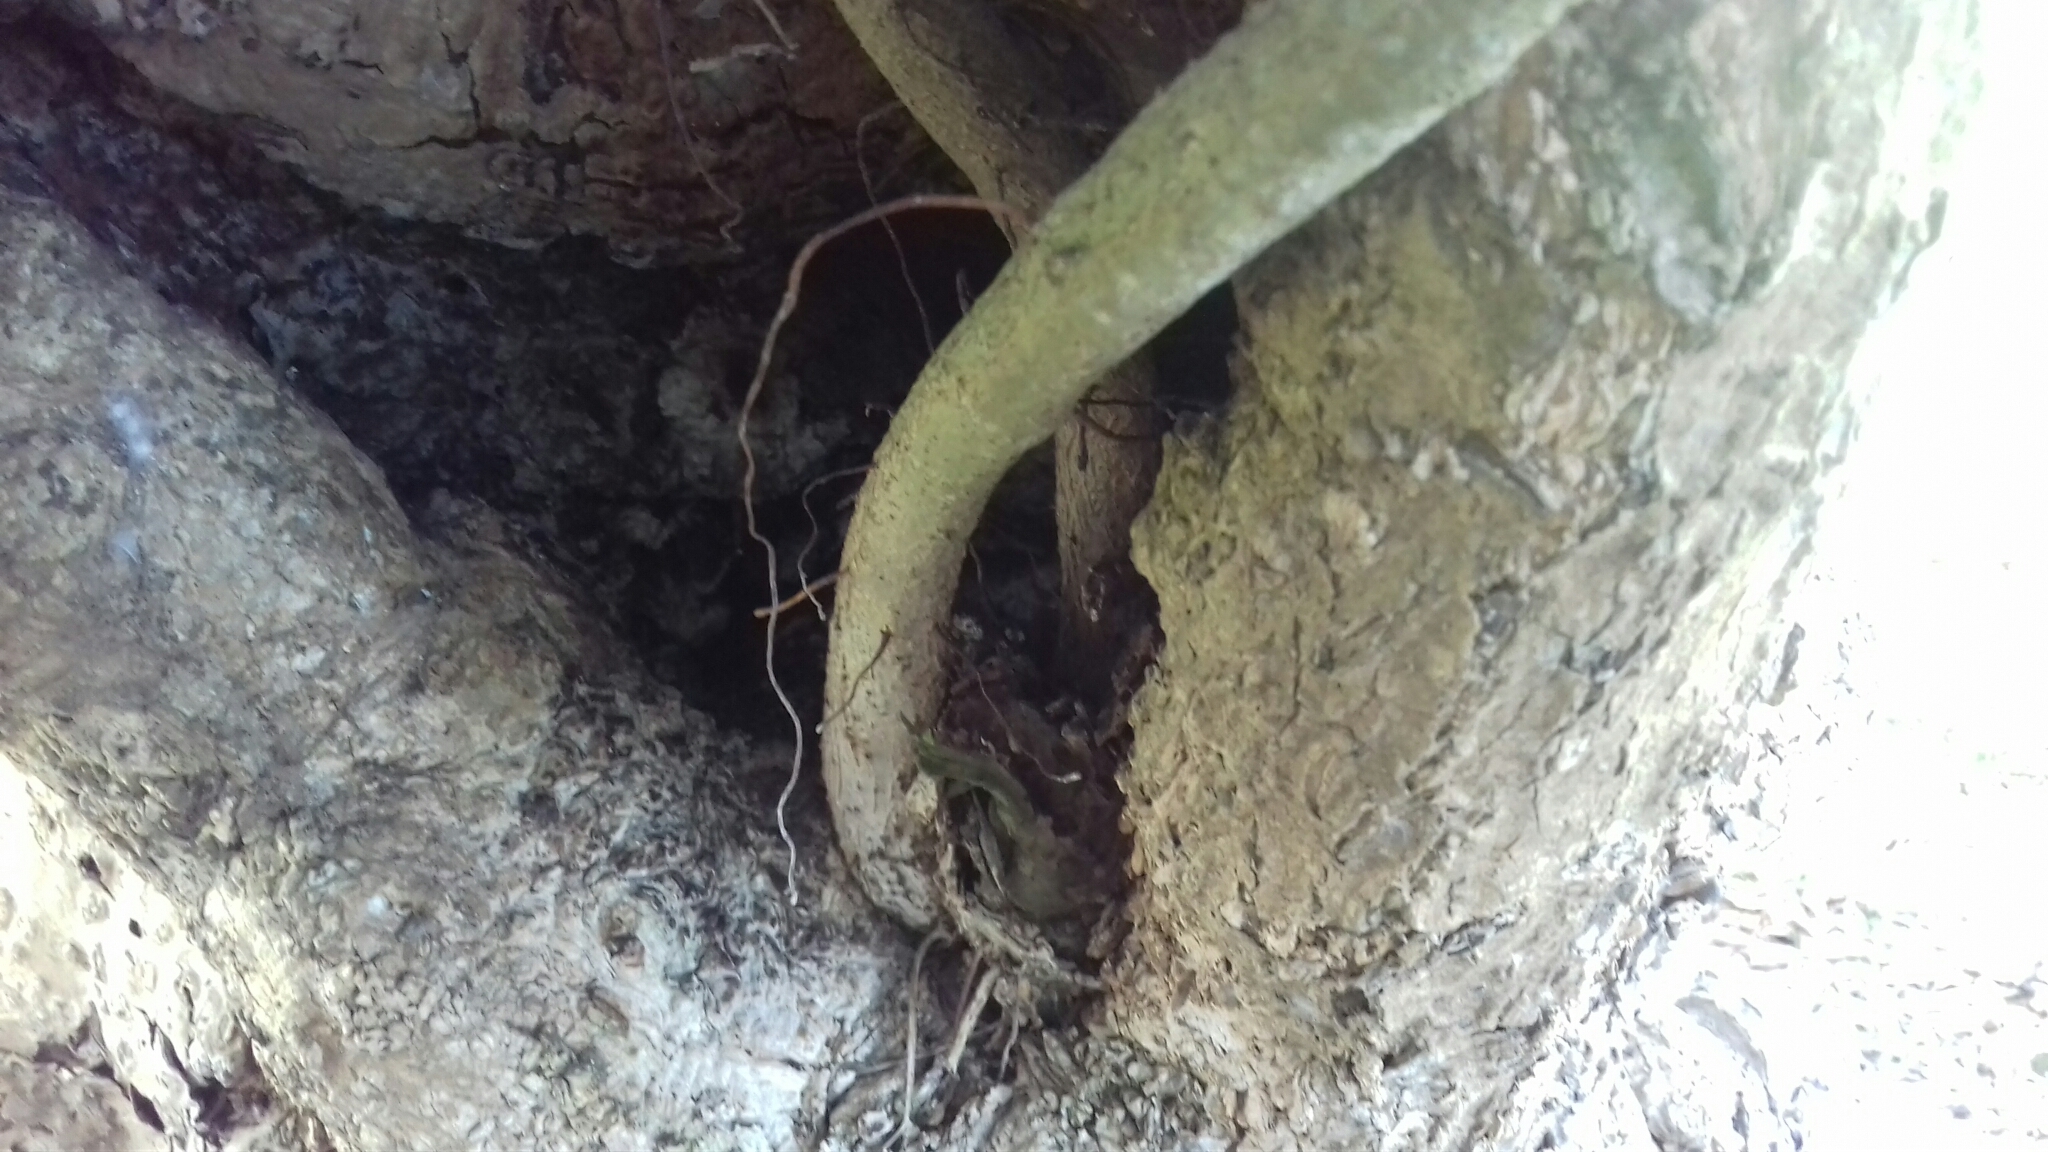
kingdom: Plantae
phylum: Tracheophyta
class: Magnoliopsida
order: Rosales
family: Moraceae
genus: Ficus
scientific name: Ficus obtusifolia
